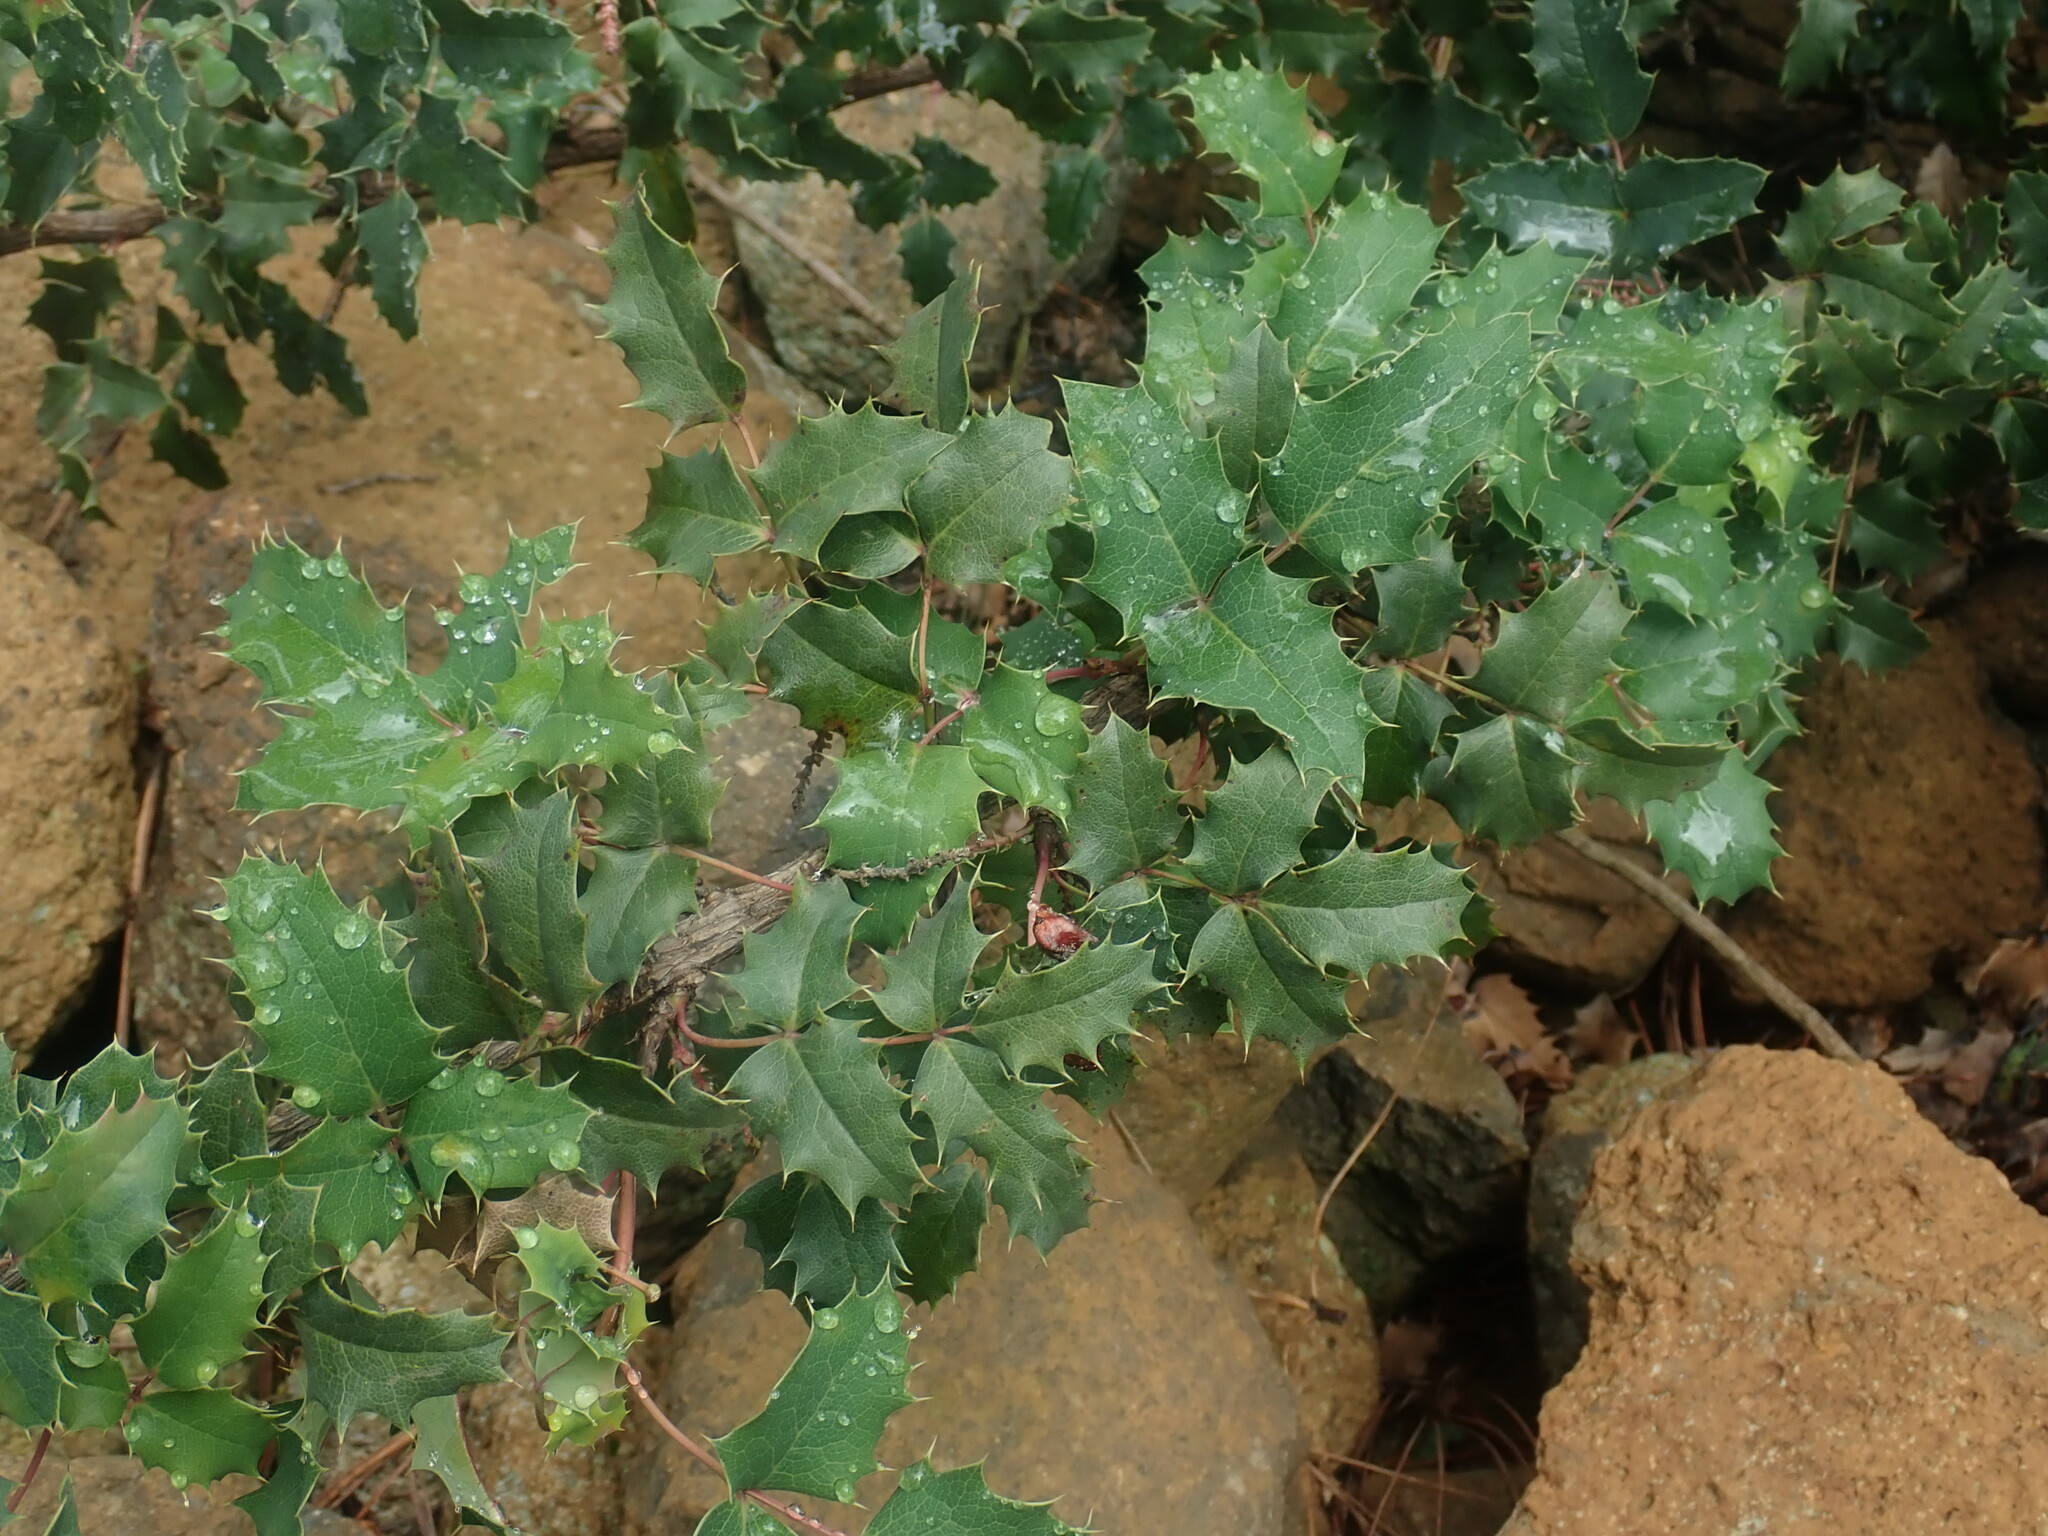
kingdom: Plantae
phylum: Tracheophyta
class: Magnoliopsida
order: Ranunculales
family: Berberidaceae
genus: Mahonia
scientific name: Mahonia alpina
